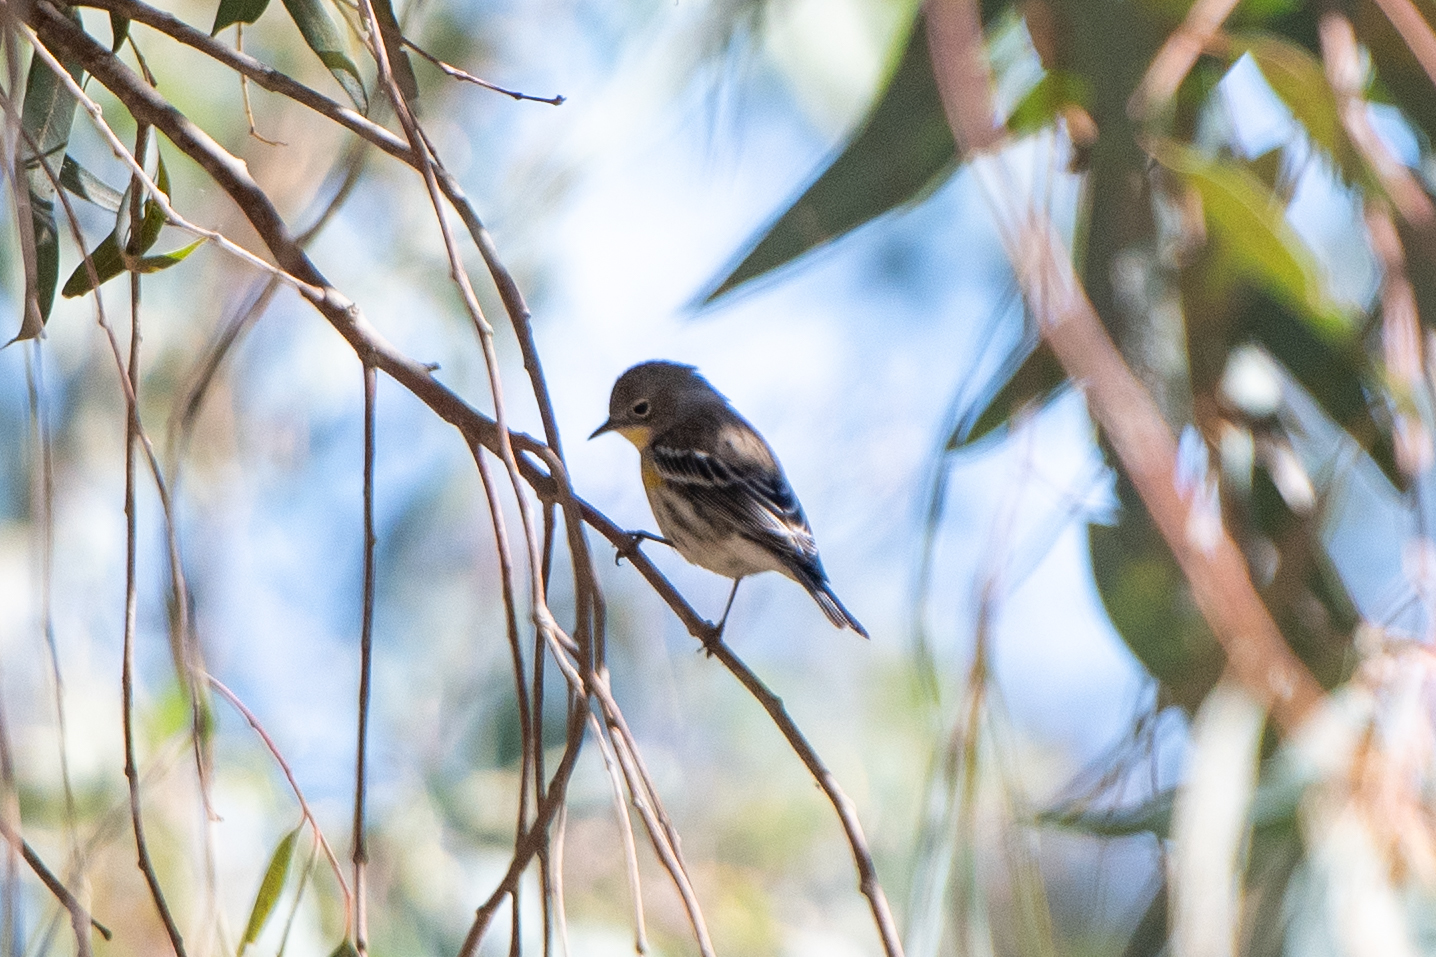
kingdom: Animalia
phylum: Chordata
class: Aves
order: Passeriformes
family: Parulidae
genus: Setophaga
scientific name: Setophaga coronata
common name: Myrtle warbler
